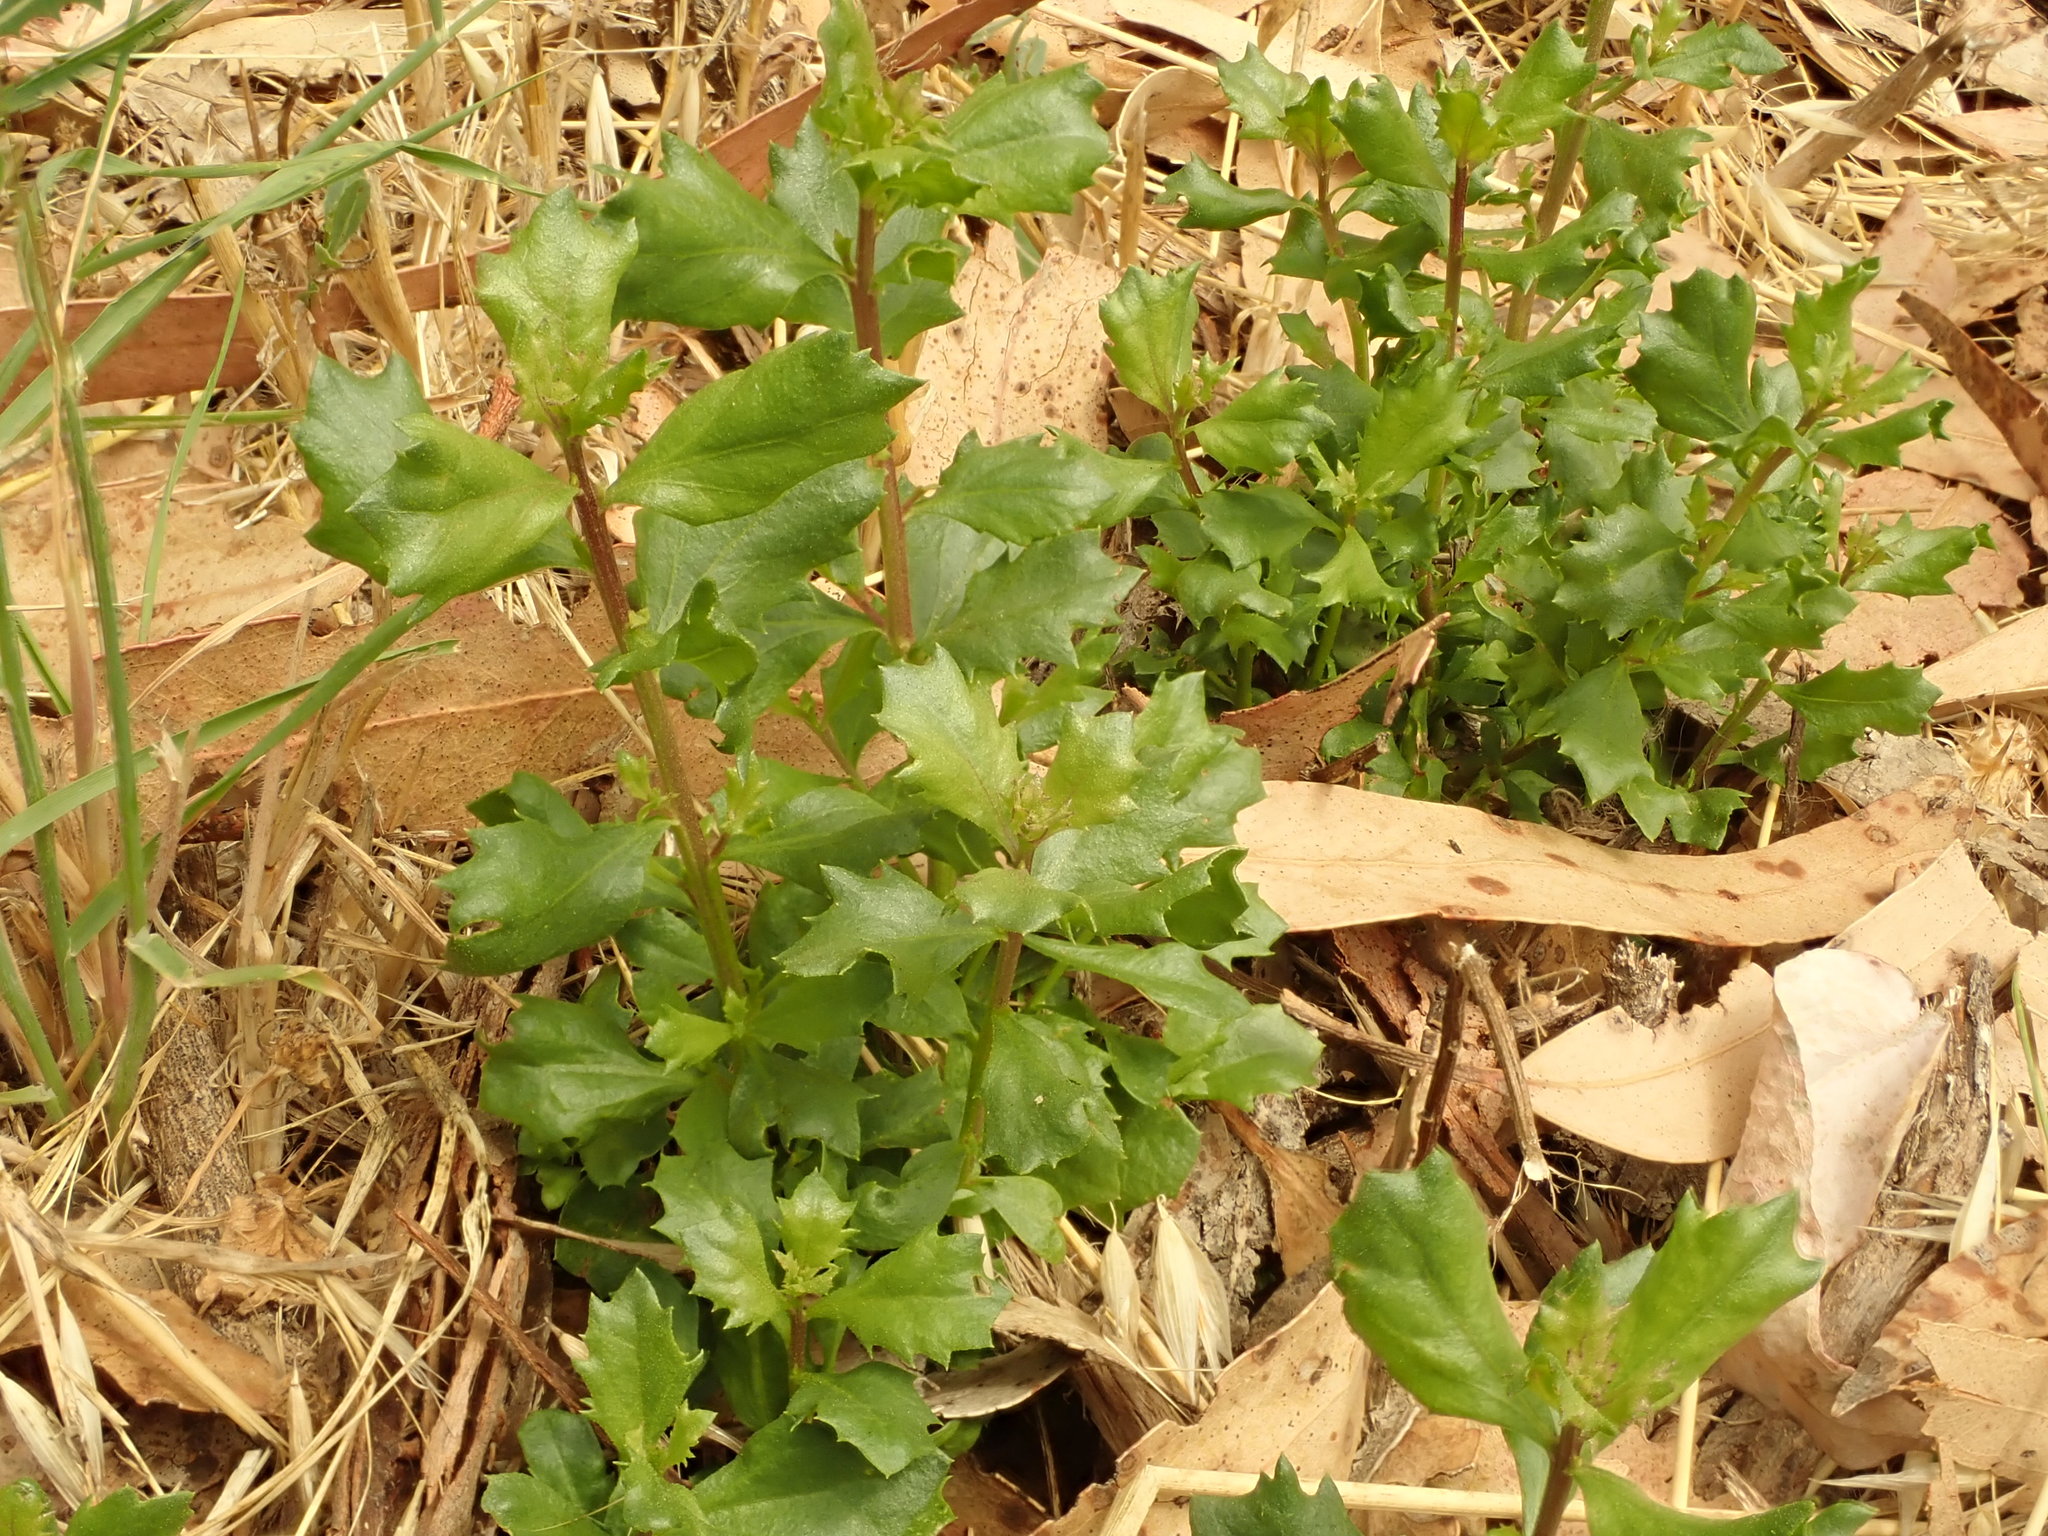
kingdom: Plantae
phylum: Tracheophyta
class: Magnoliopsida
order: Asterales
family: Asteraceae
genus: Baccharis
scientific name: Baccharis pilularis
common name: Coyotebrush
